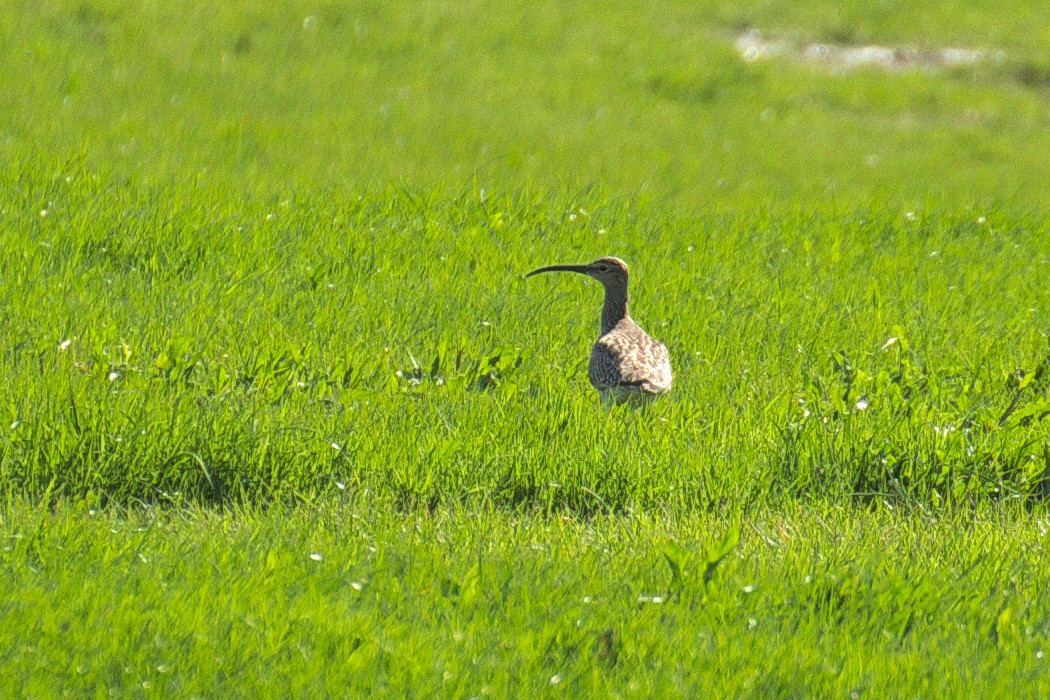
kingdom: Animalia
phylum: Chordata
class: Aves
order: Charadriiformes
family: Scolopacidae
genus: Numenius
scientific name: Numenius arquata
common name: Eurasian curlew
